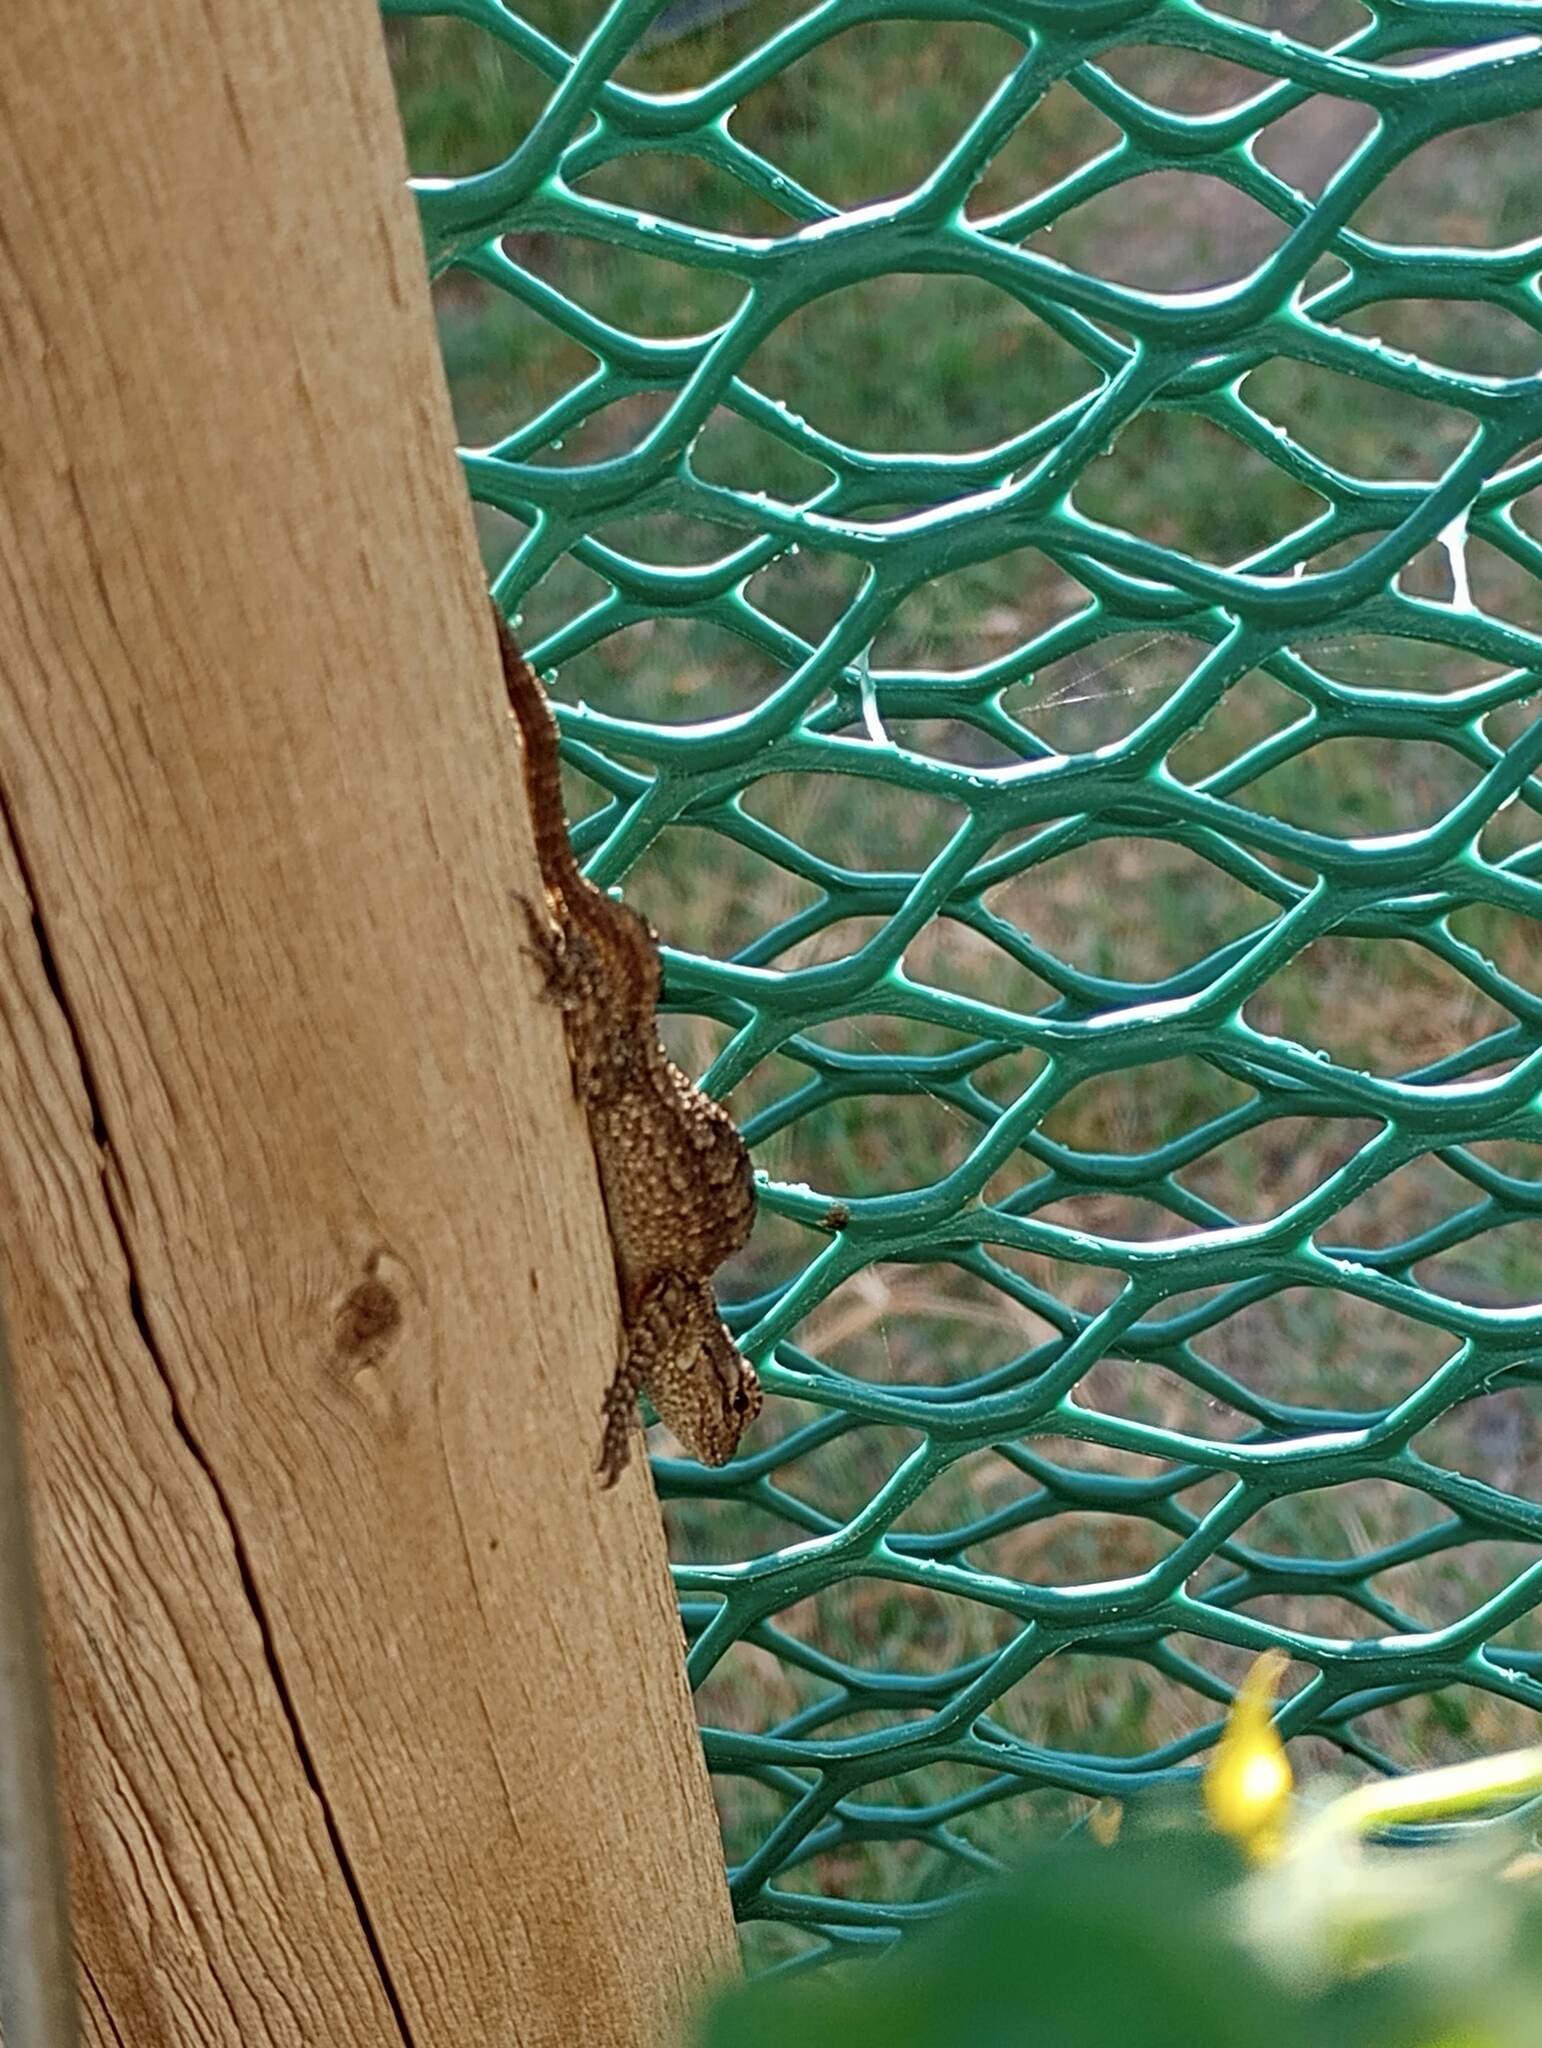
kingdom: Animalia
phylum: Chordata
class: Squamata
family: Phrynosomatidae
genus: Sceloporus
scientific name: Sceloporus occidentalis
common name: Western fence lizard
